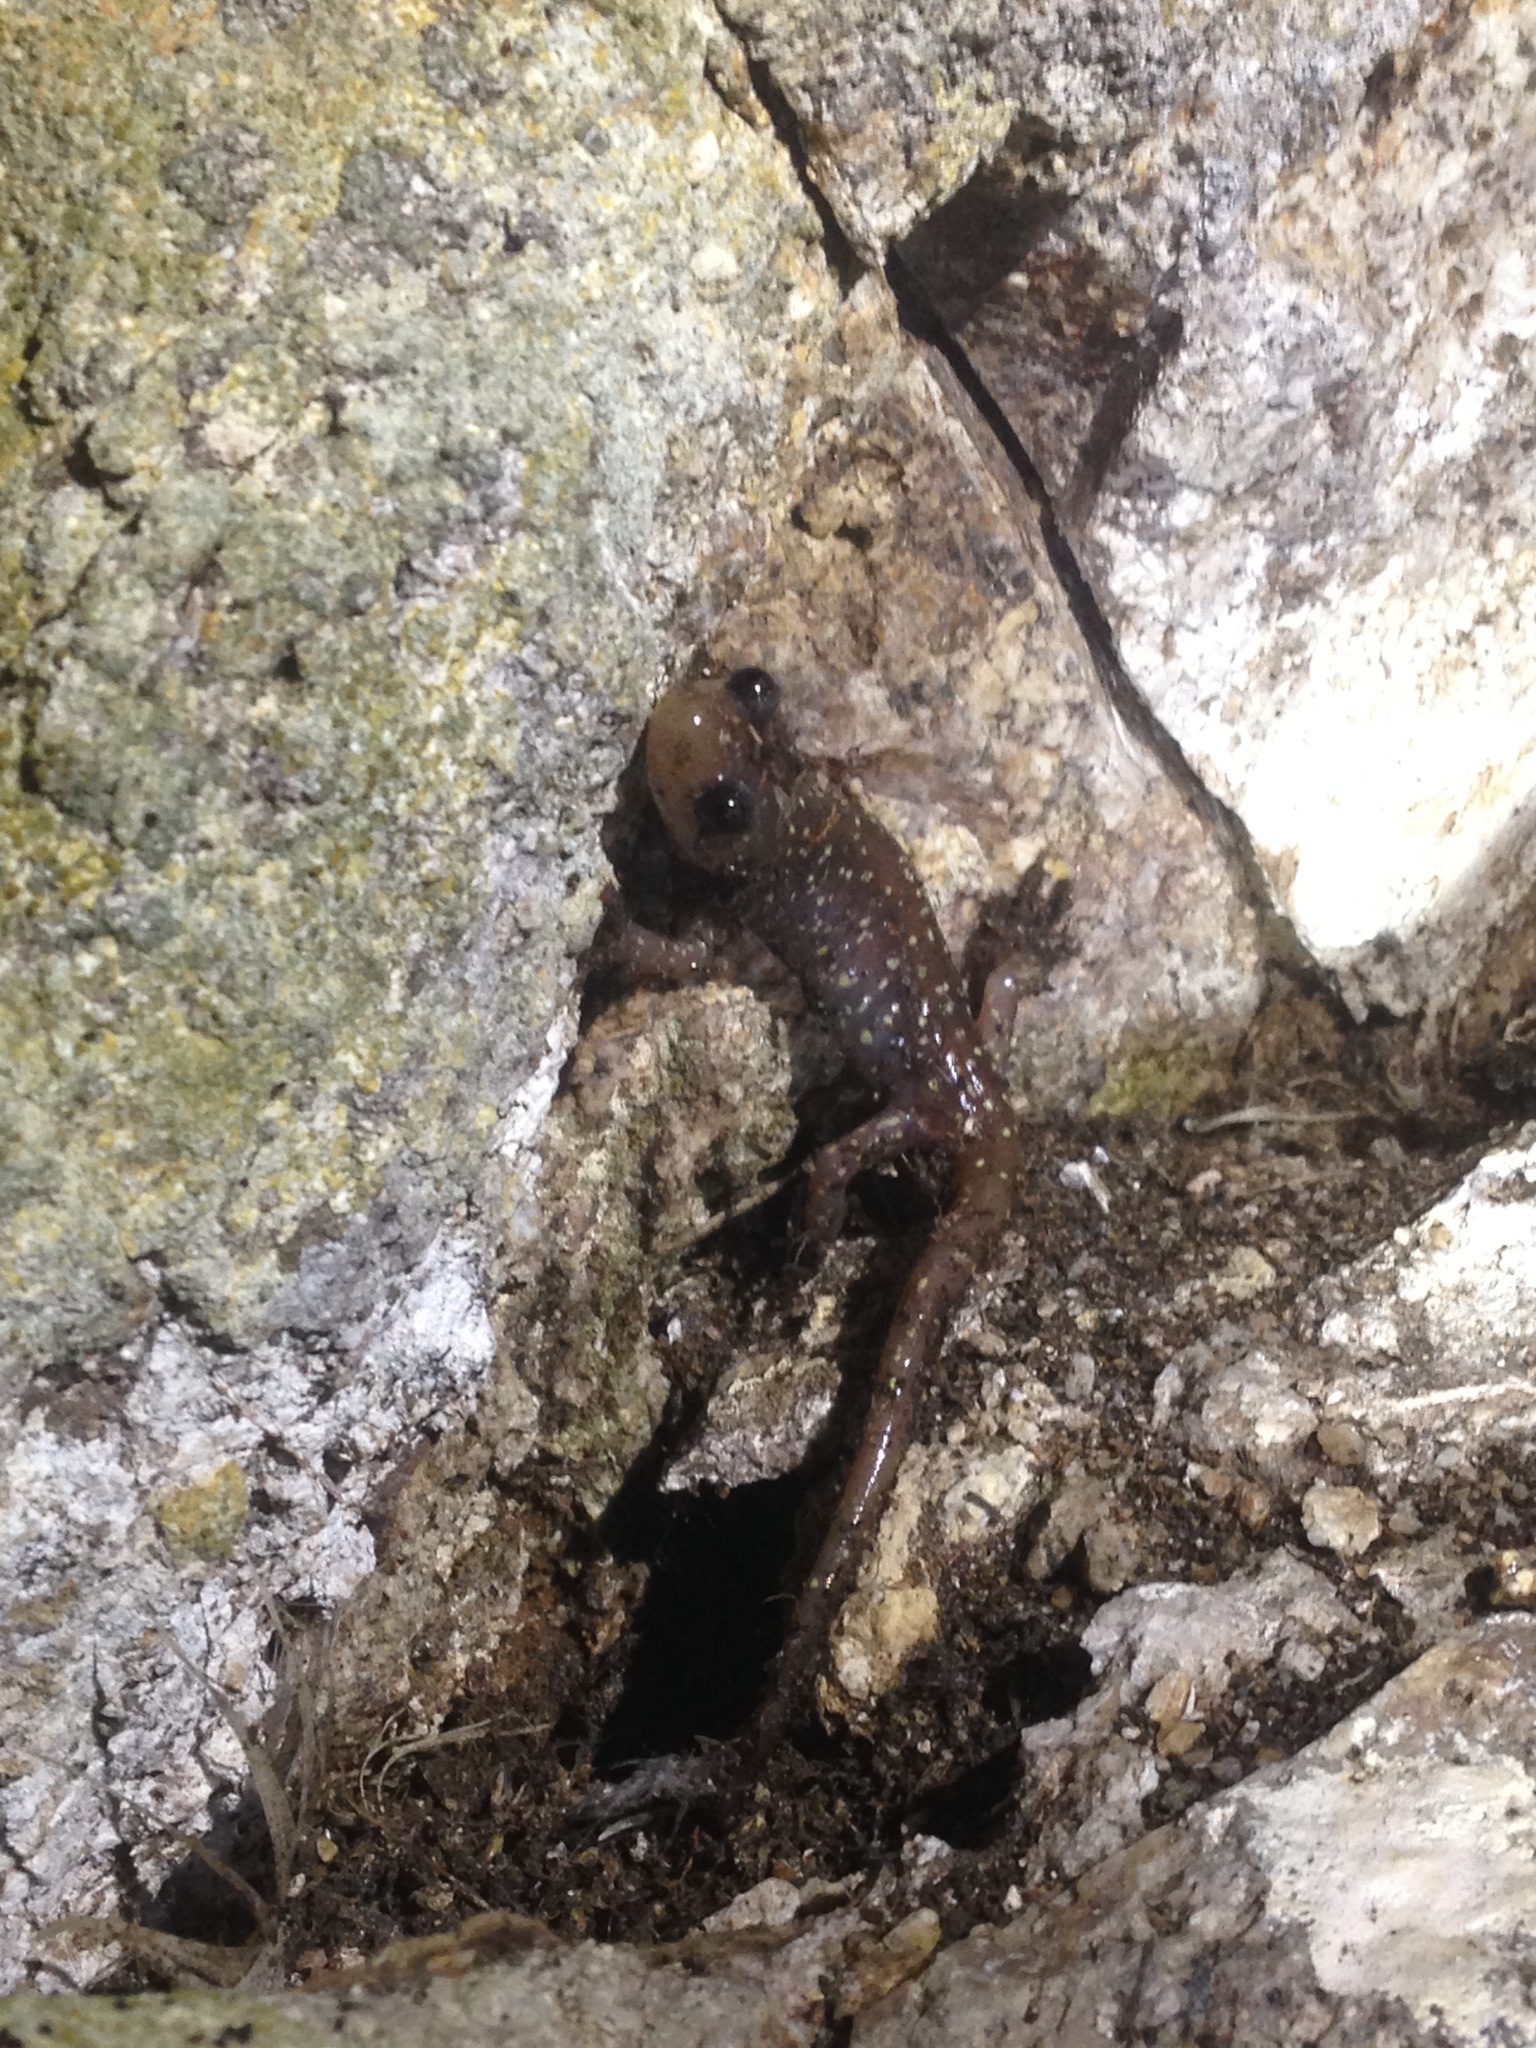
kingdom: Animalia
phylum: Chordata
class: Amphibia
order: Caudata
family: Plethodontidae
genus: Aneides
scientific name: Aneides lugubris
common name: Arboreal salamander
